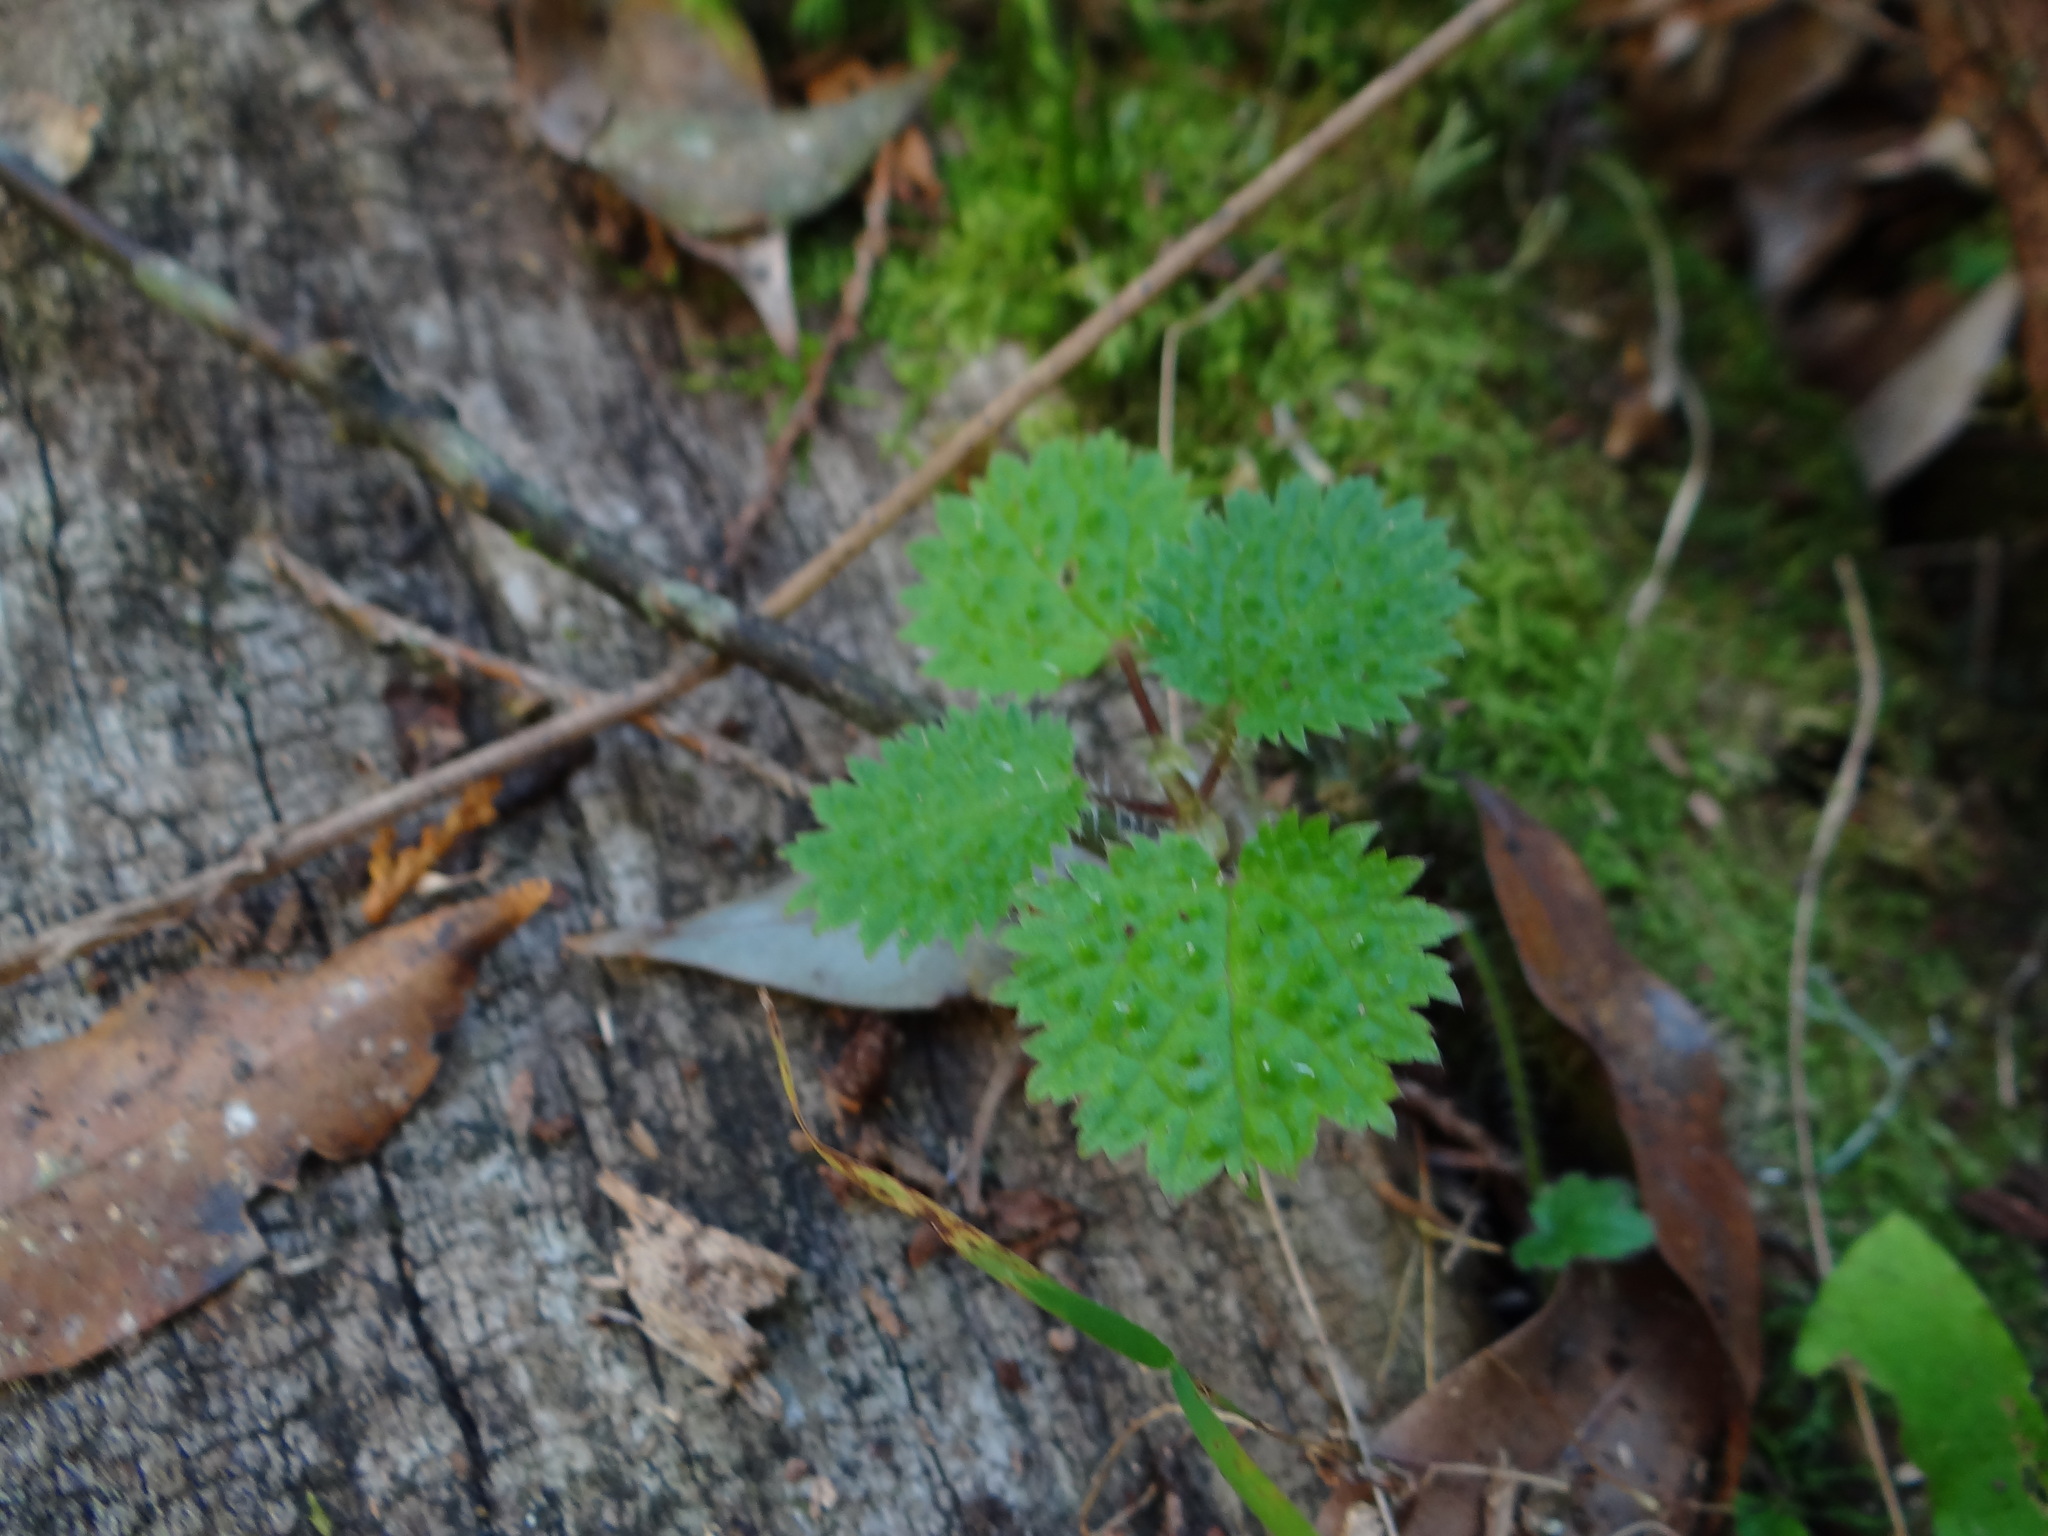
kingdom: Plantae
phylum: Tracheophyta
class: Magnoliopsida
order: Rosales
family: Urticaceae
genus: Urtica
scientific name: Urtica thunbergiana
